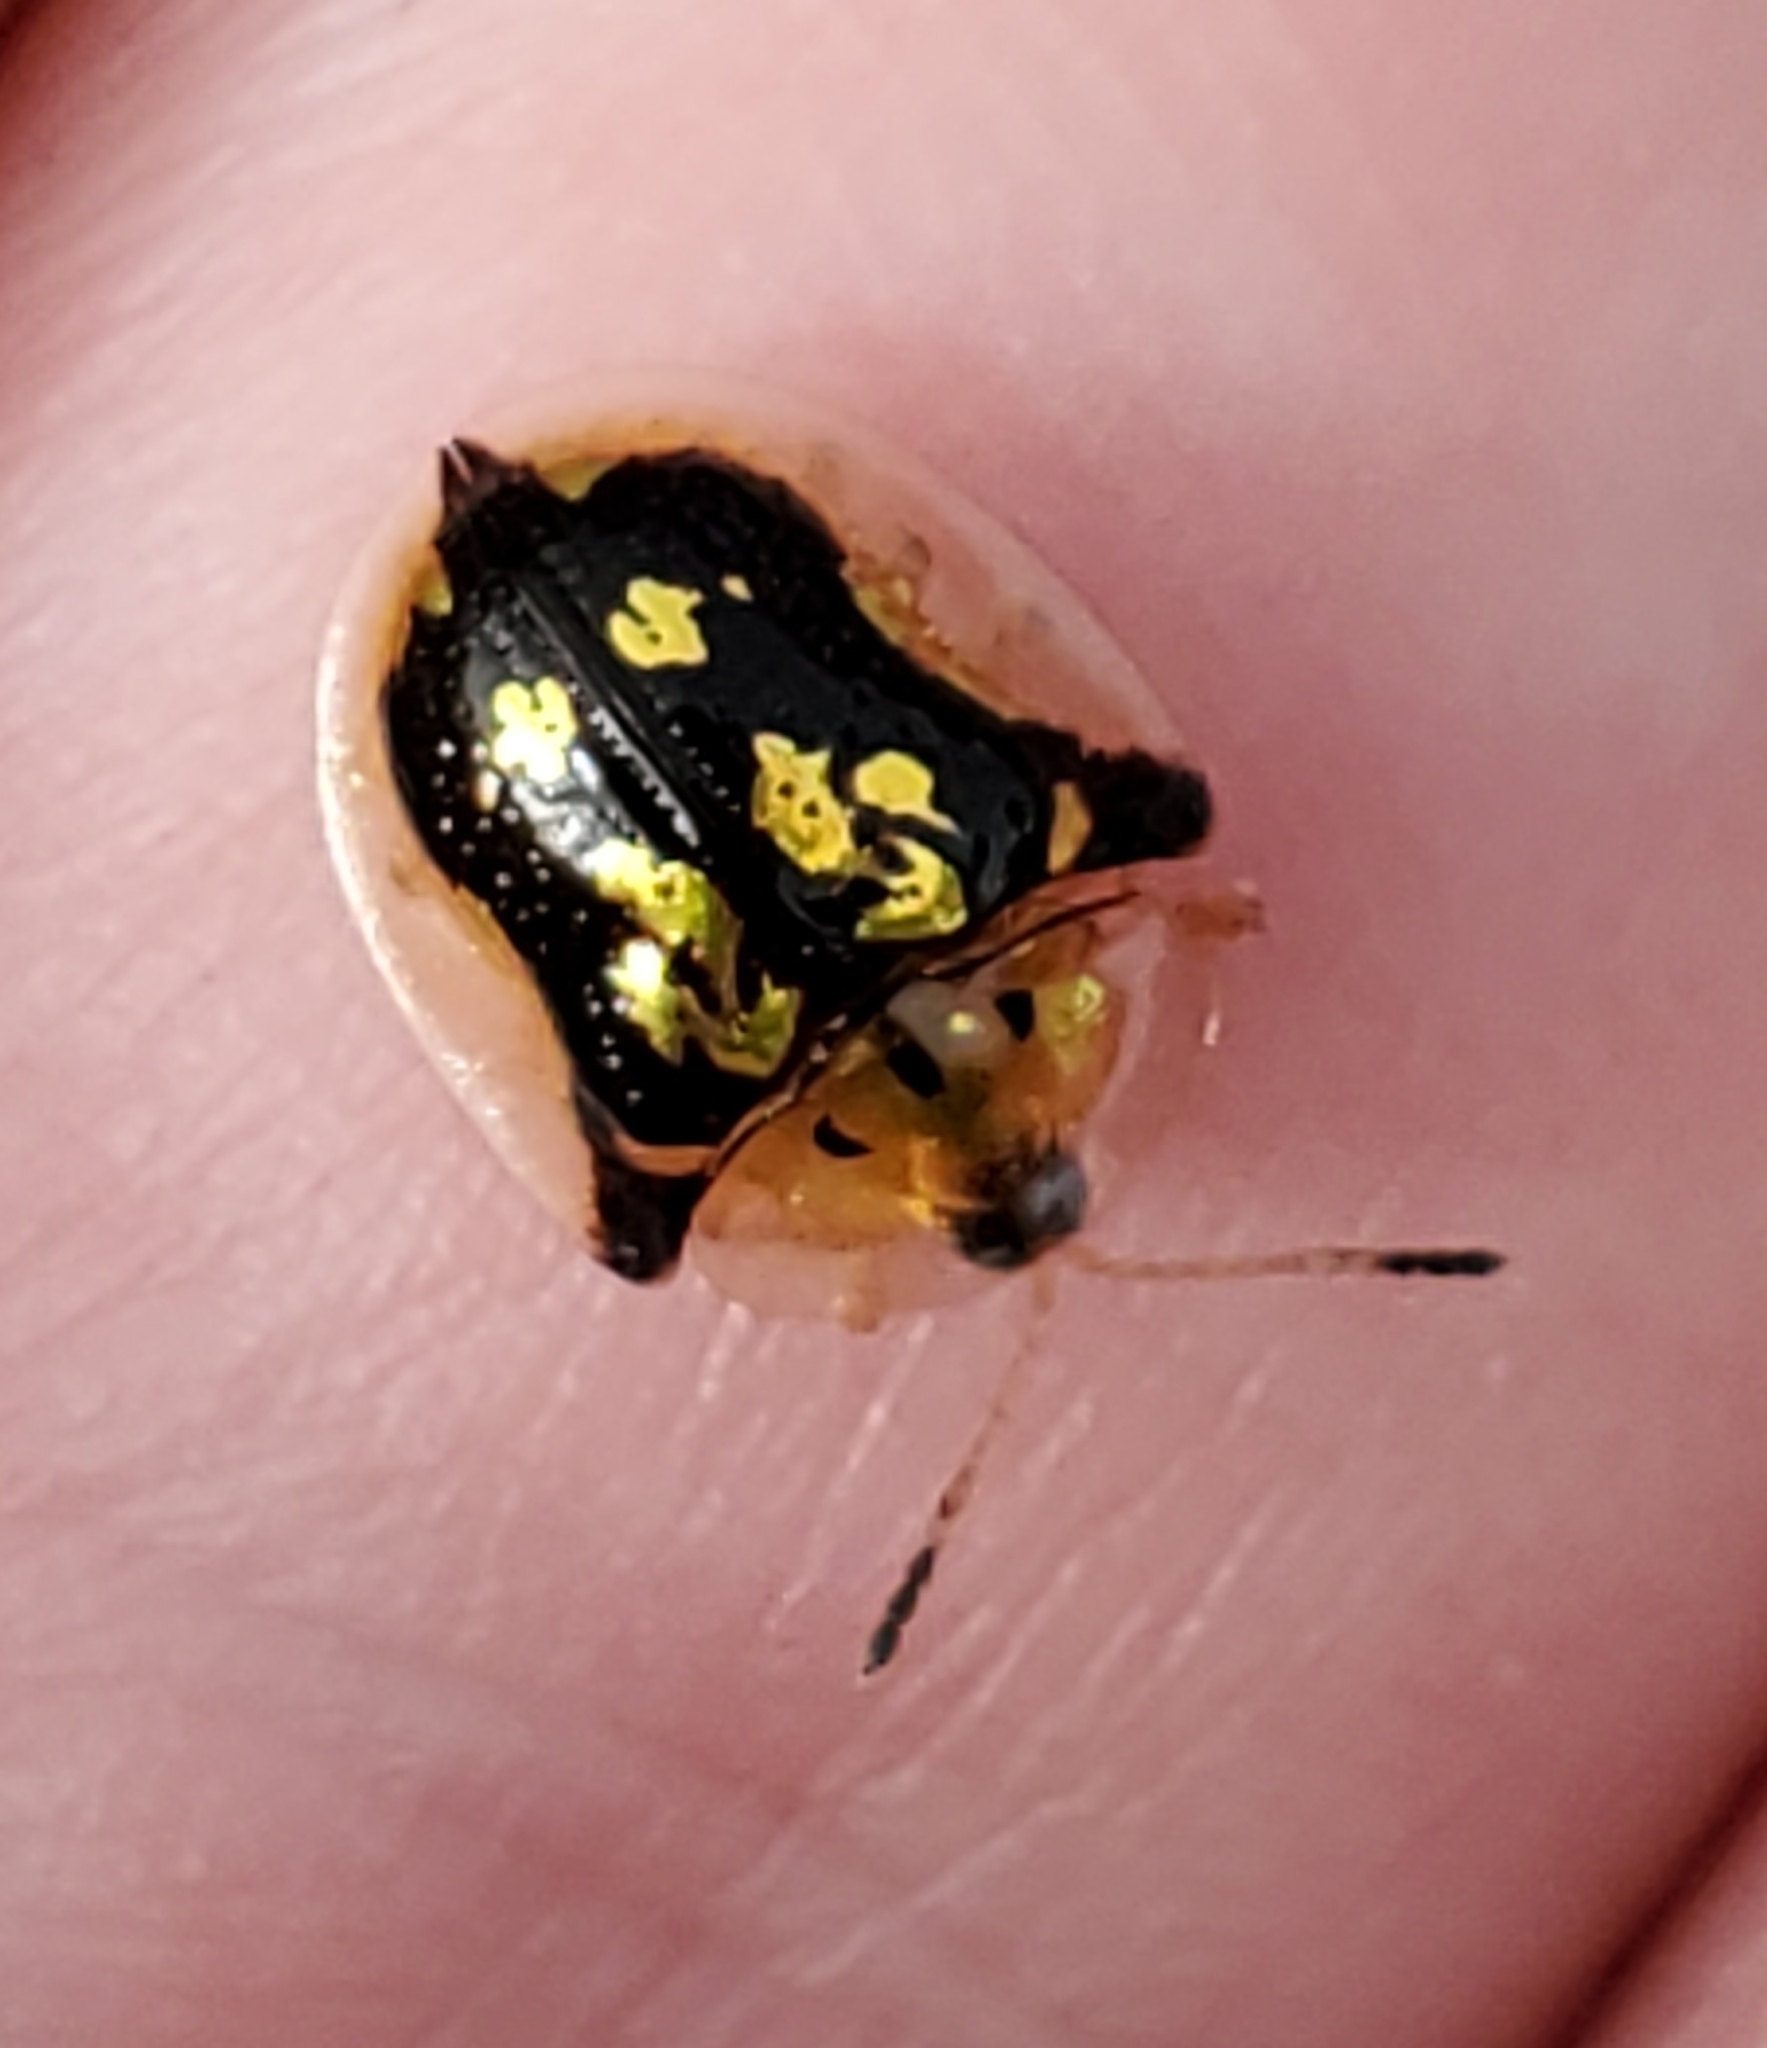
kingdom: Animalia
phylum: Arthropoda
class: Insecta
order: Coleoptera
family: Chrysomelidae
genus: Deloyala
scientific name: Deloyala guttata
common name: Mottled tortoise beetle
